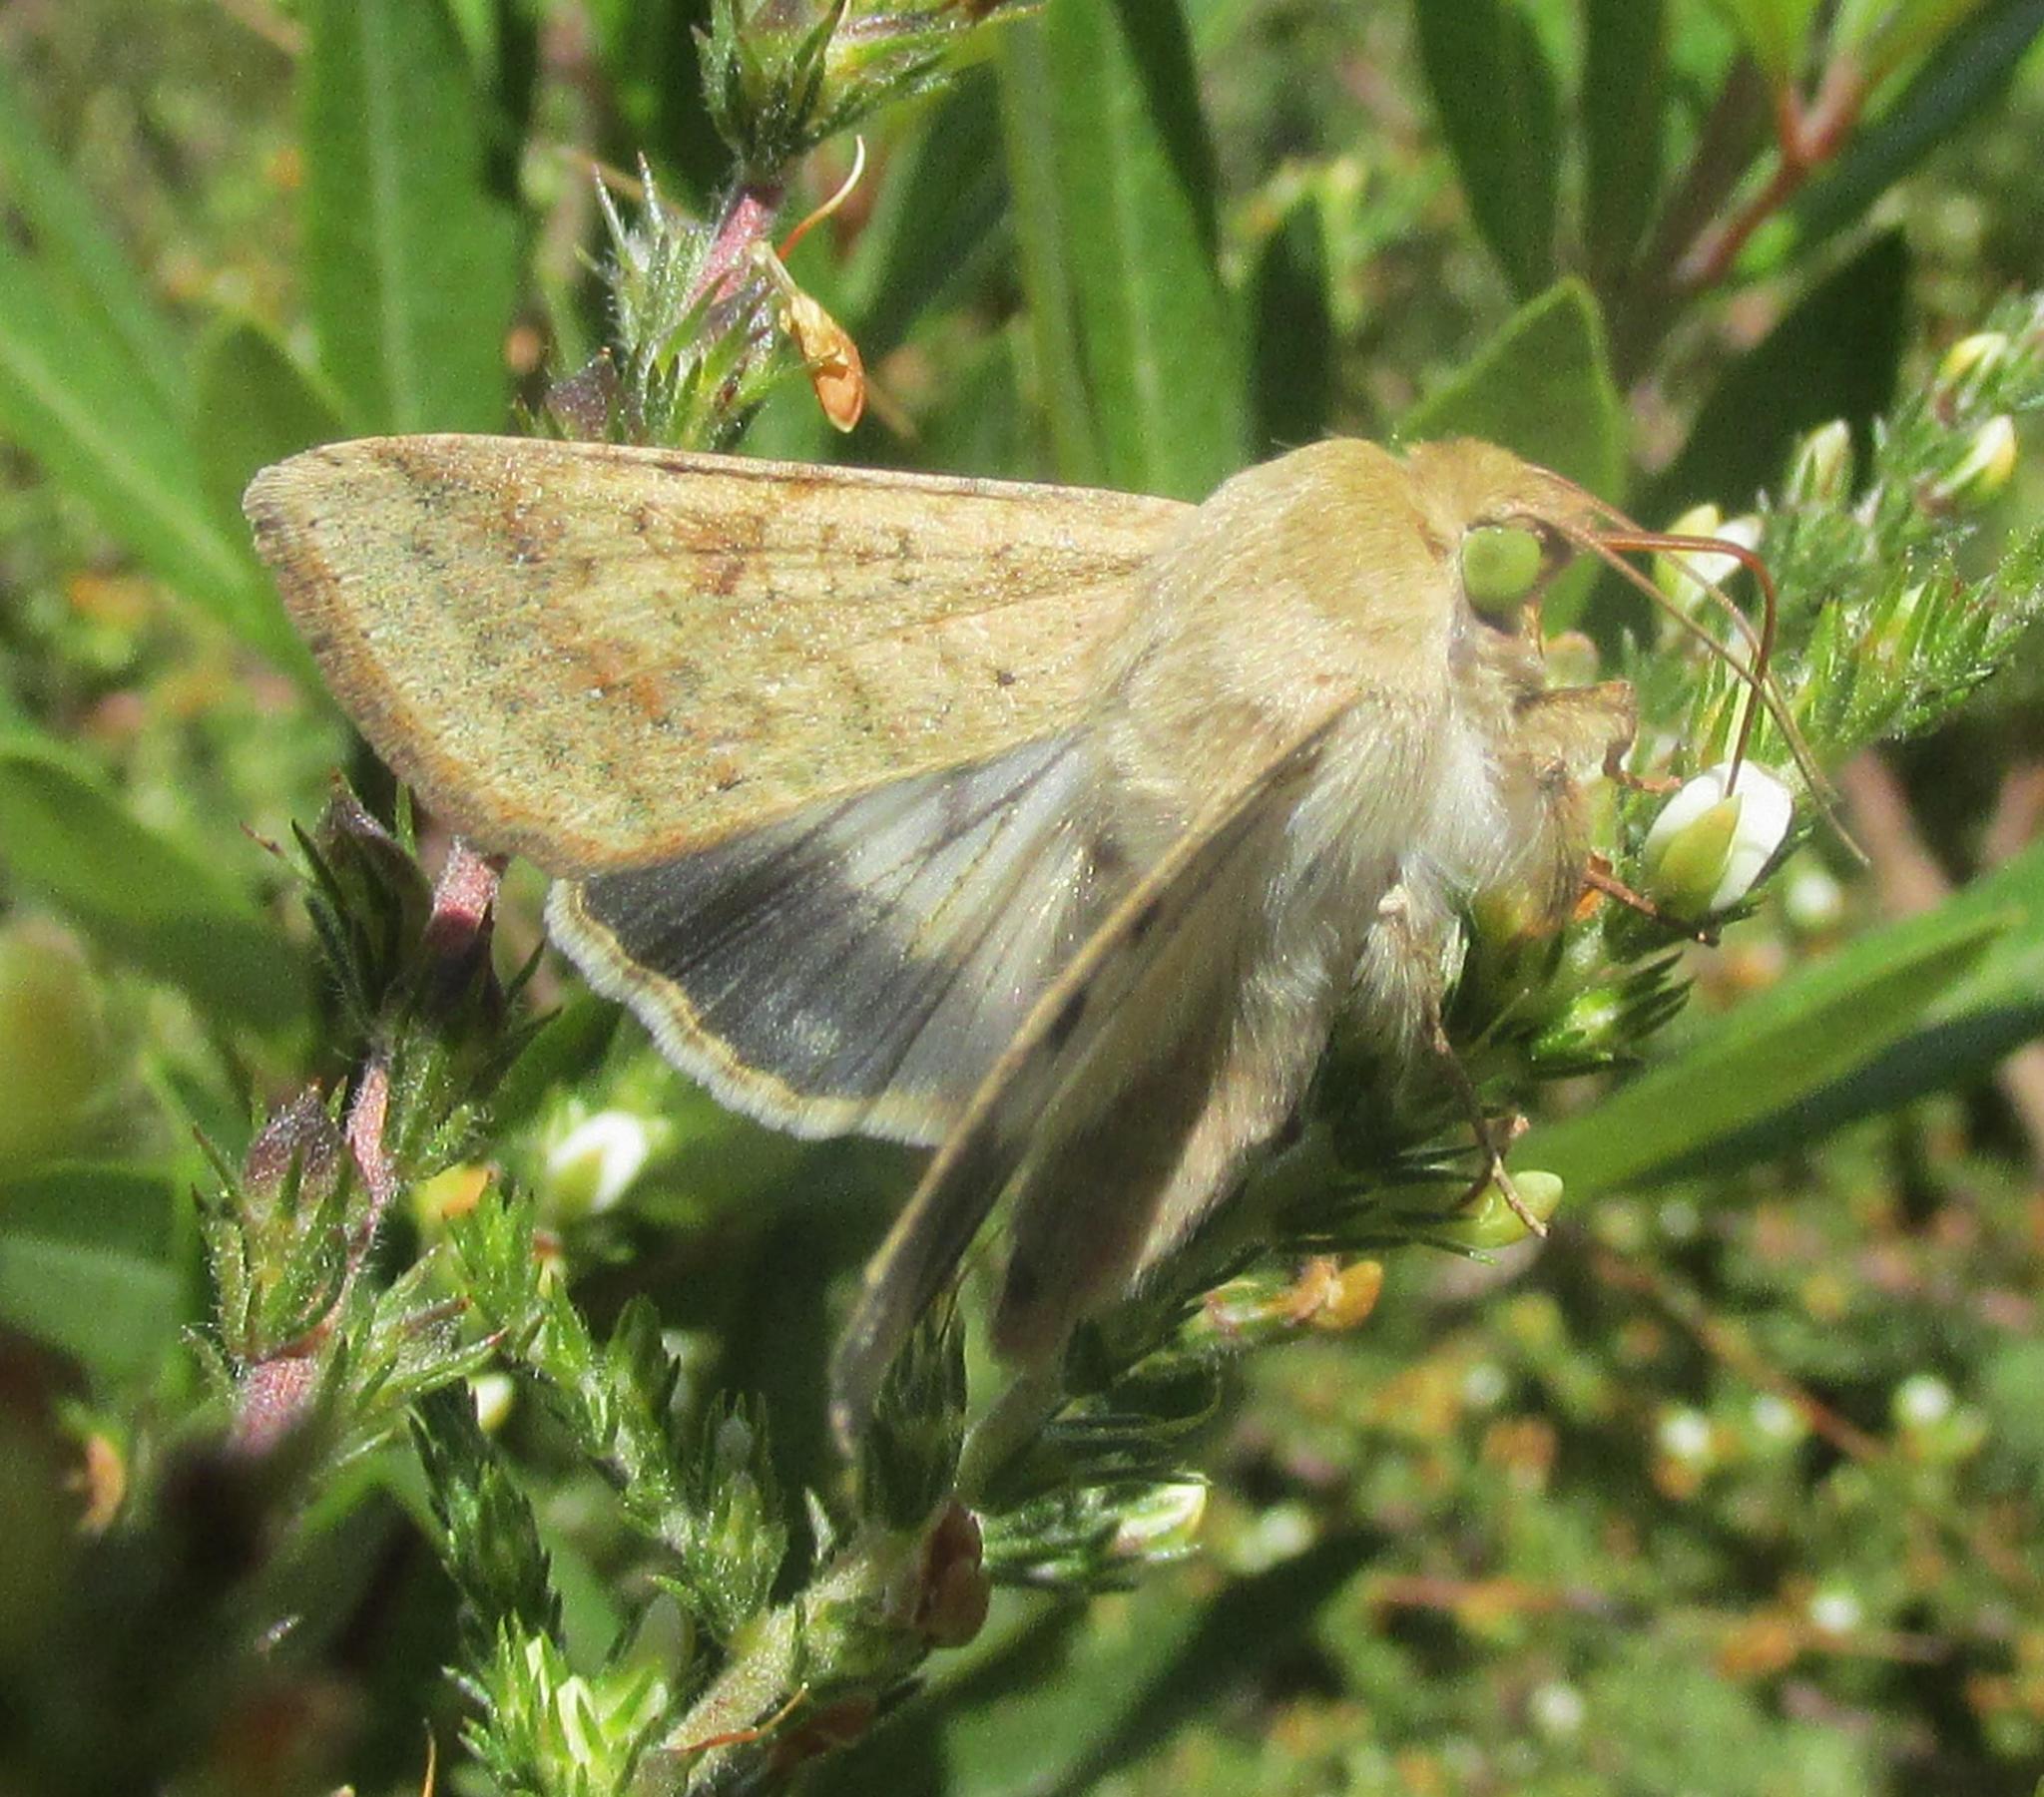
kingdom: Animalia
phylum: Arthropoda
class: Insecta
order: Lepidoptera
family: Noctuidae
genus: Helicoverpa
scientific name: Helicoverpa armigera
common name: Cotton bollworm
